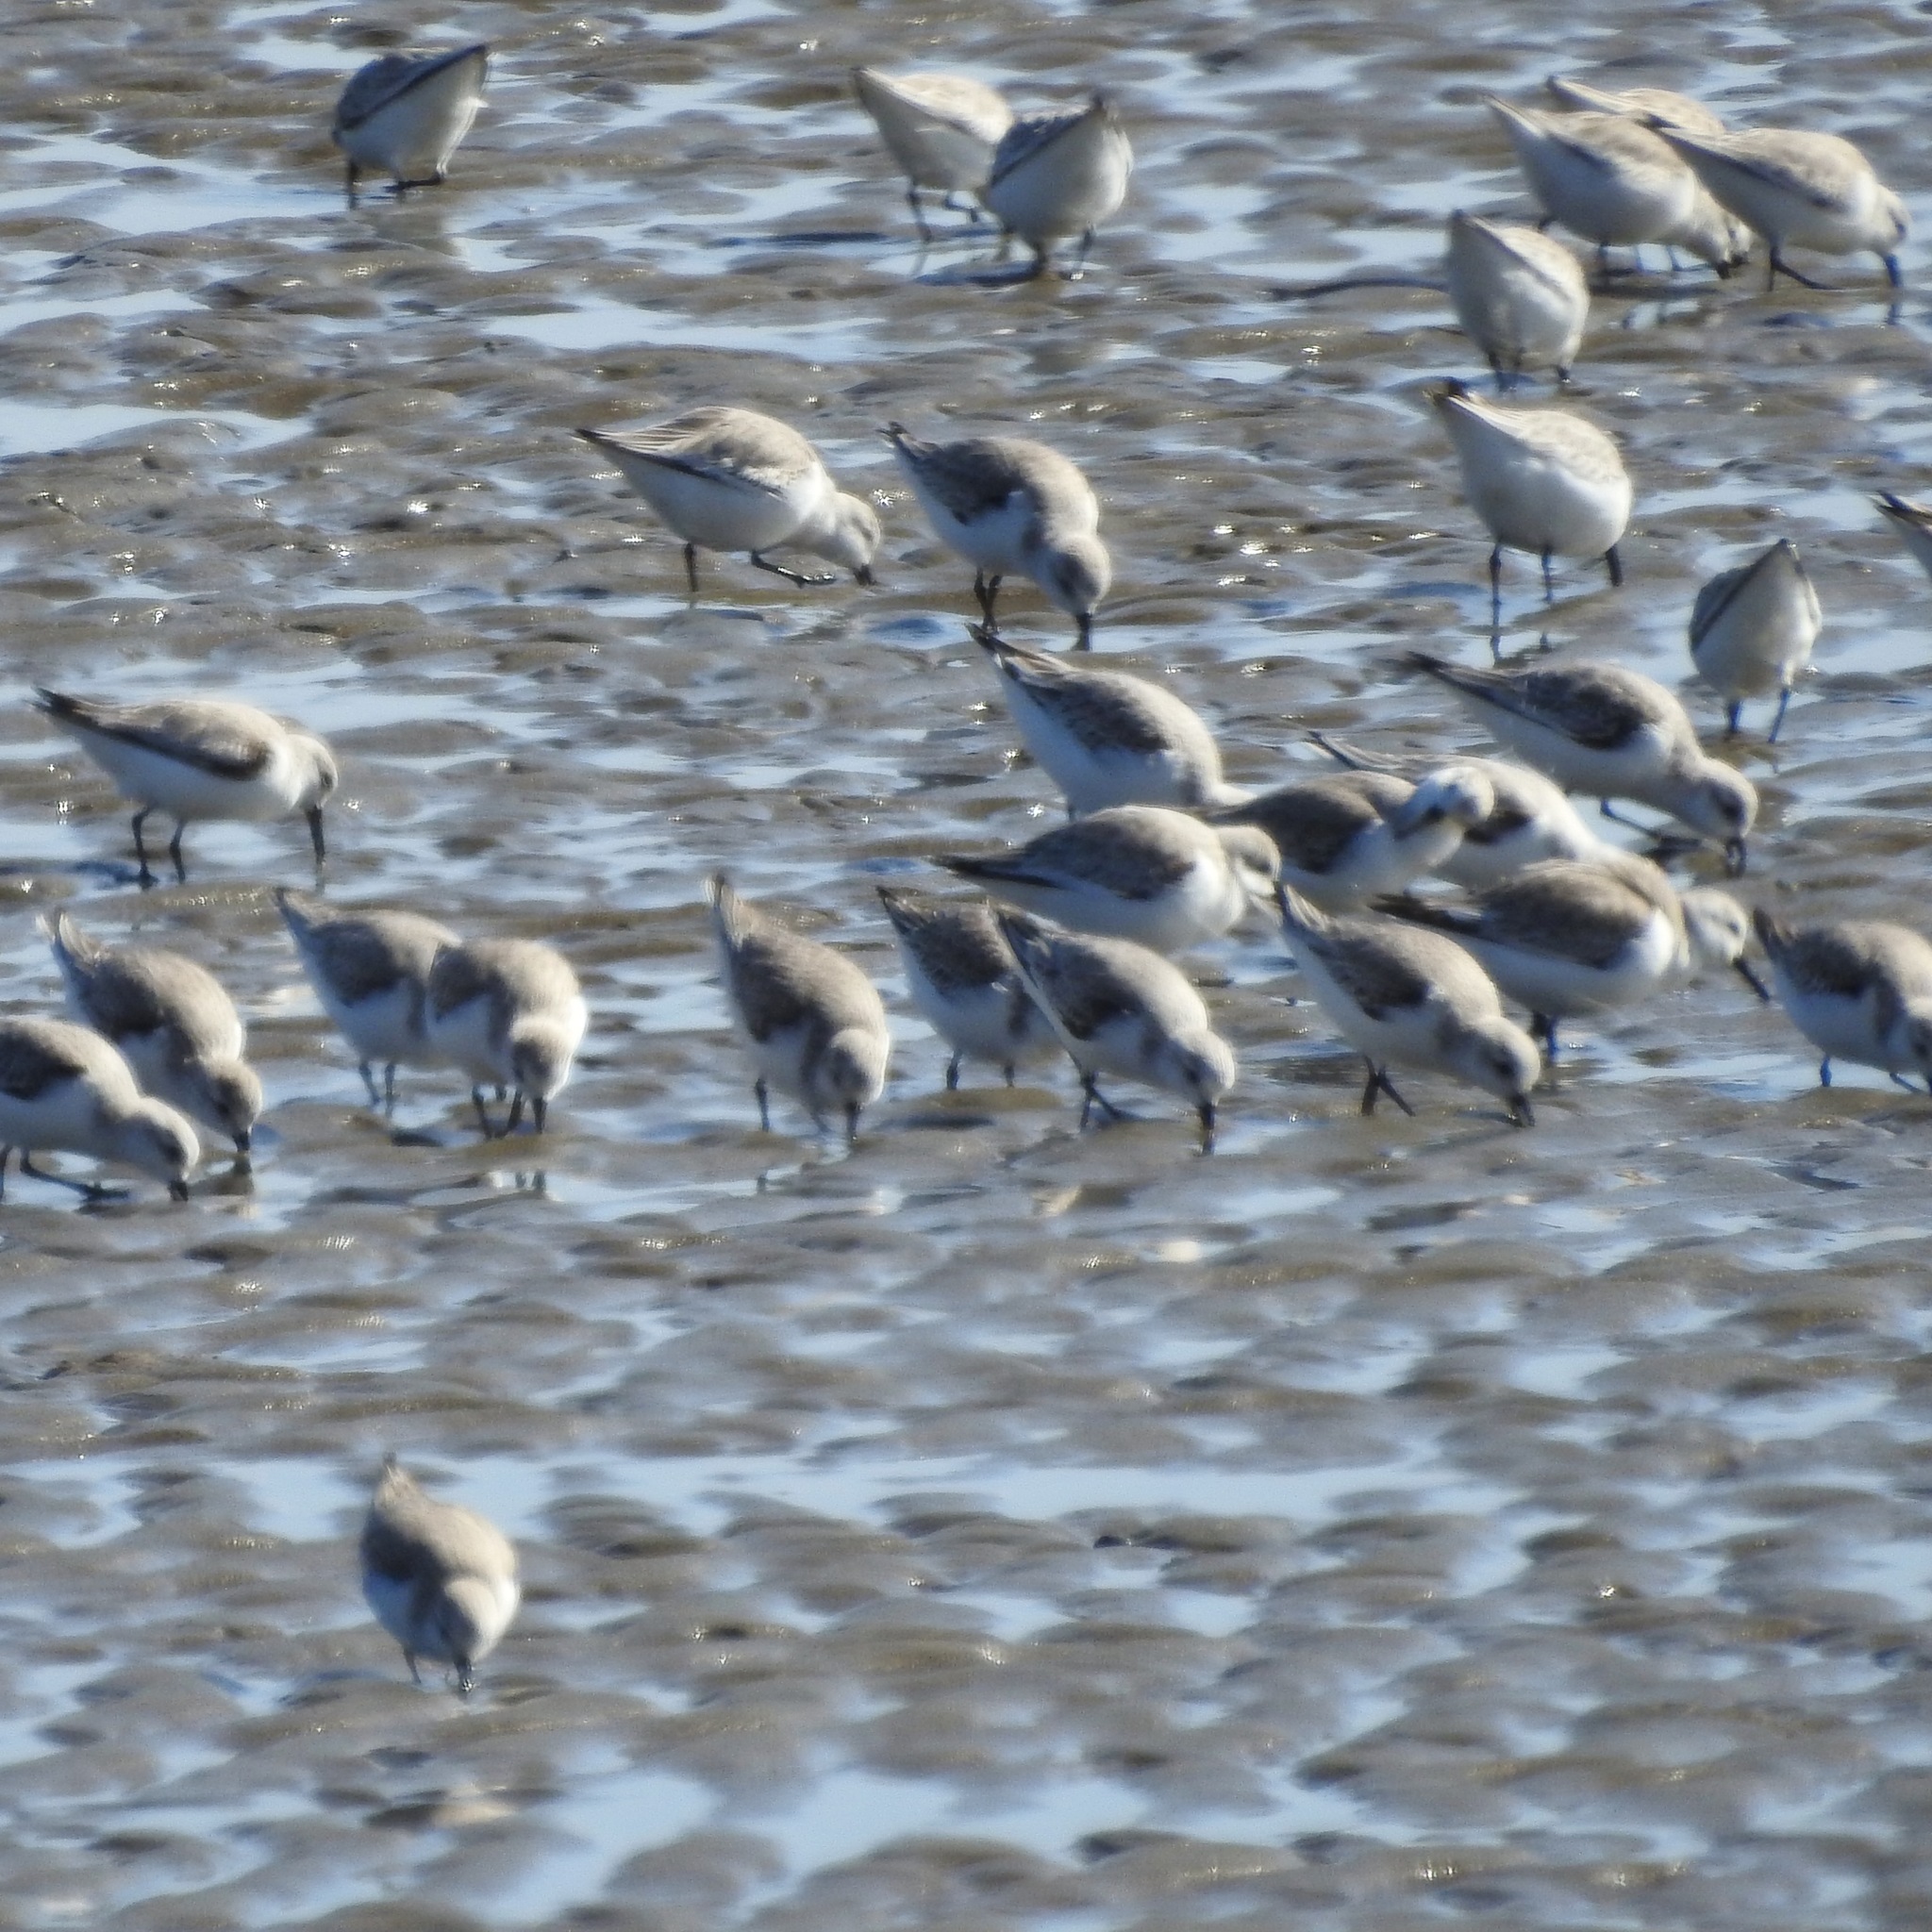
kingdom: Animalia
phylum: Chordata
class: Aves
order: Charadriiformes
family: Scolopacidae
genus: Calidris
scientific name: Calidris alba
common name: Sanderling
